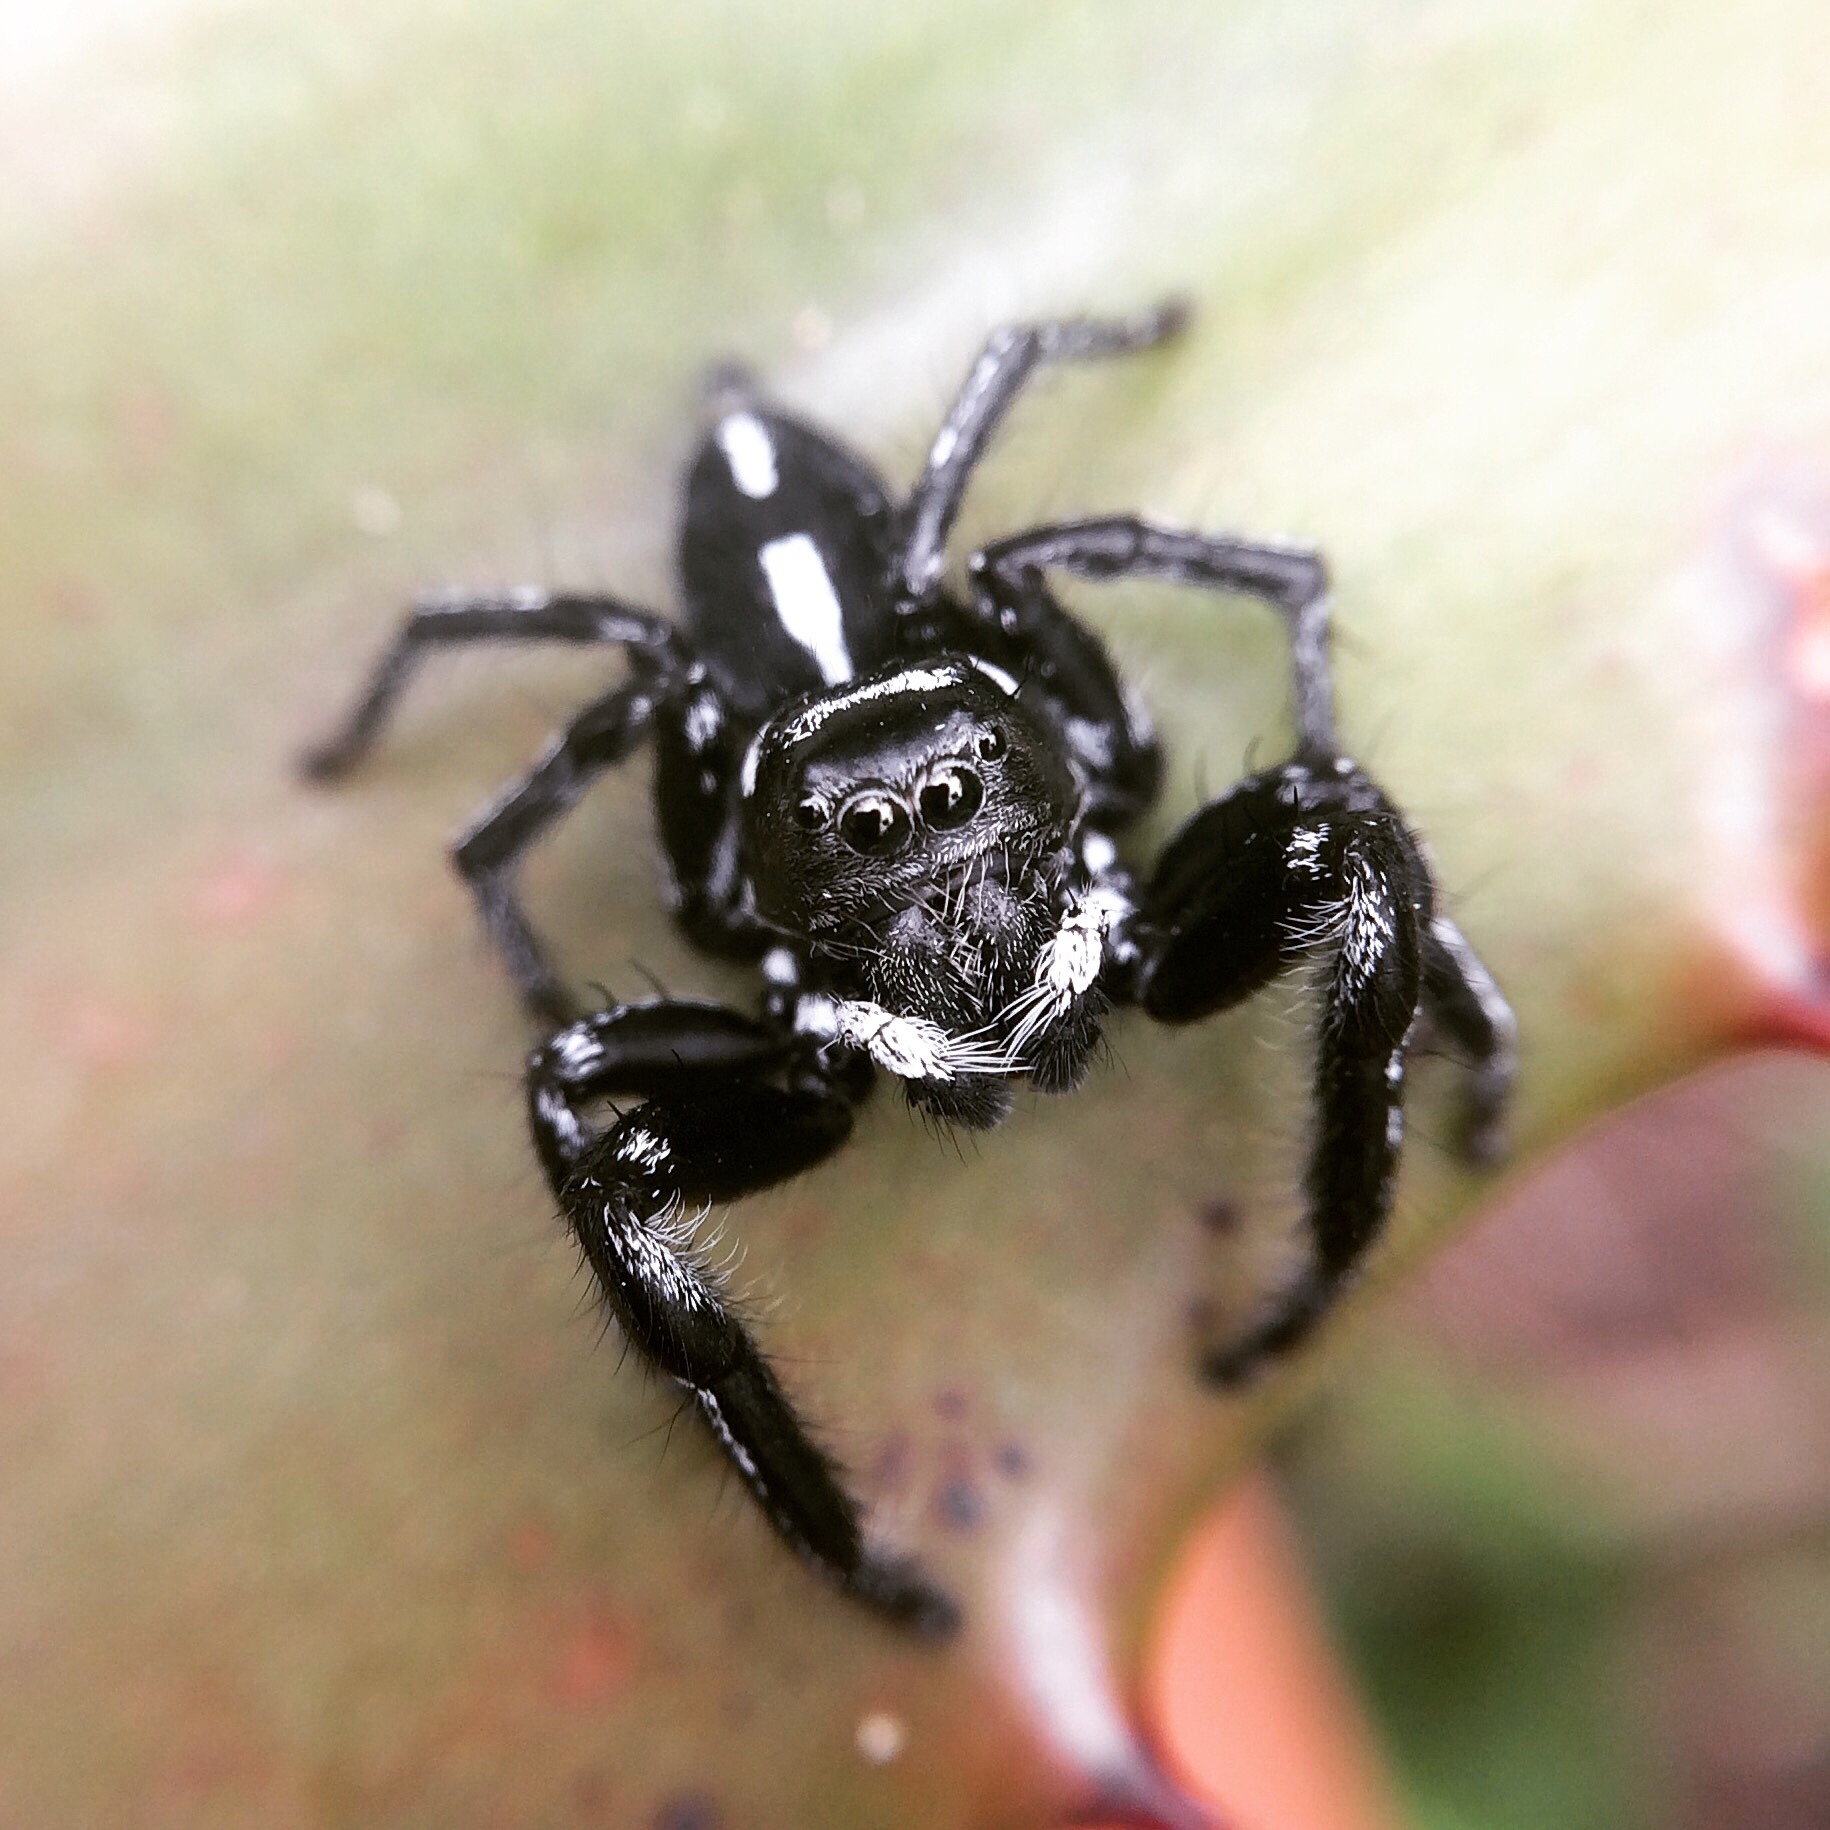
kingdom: Animalia
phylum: Arthropoda
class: Arachnida
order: Araneae
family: Salticidae
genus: Hyllus
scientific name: Hyllus argyrotoxus
